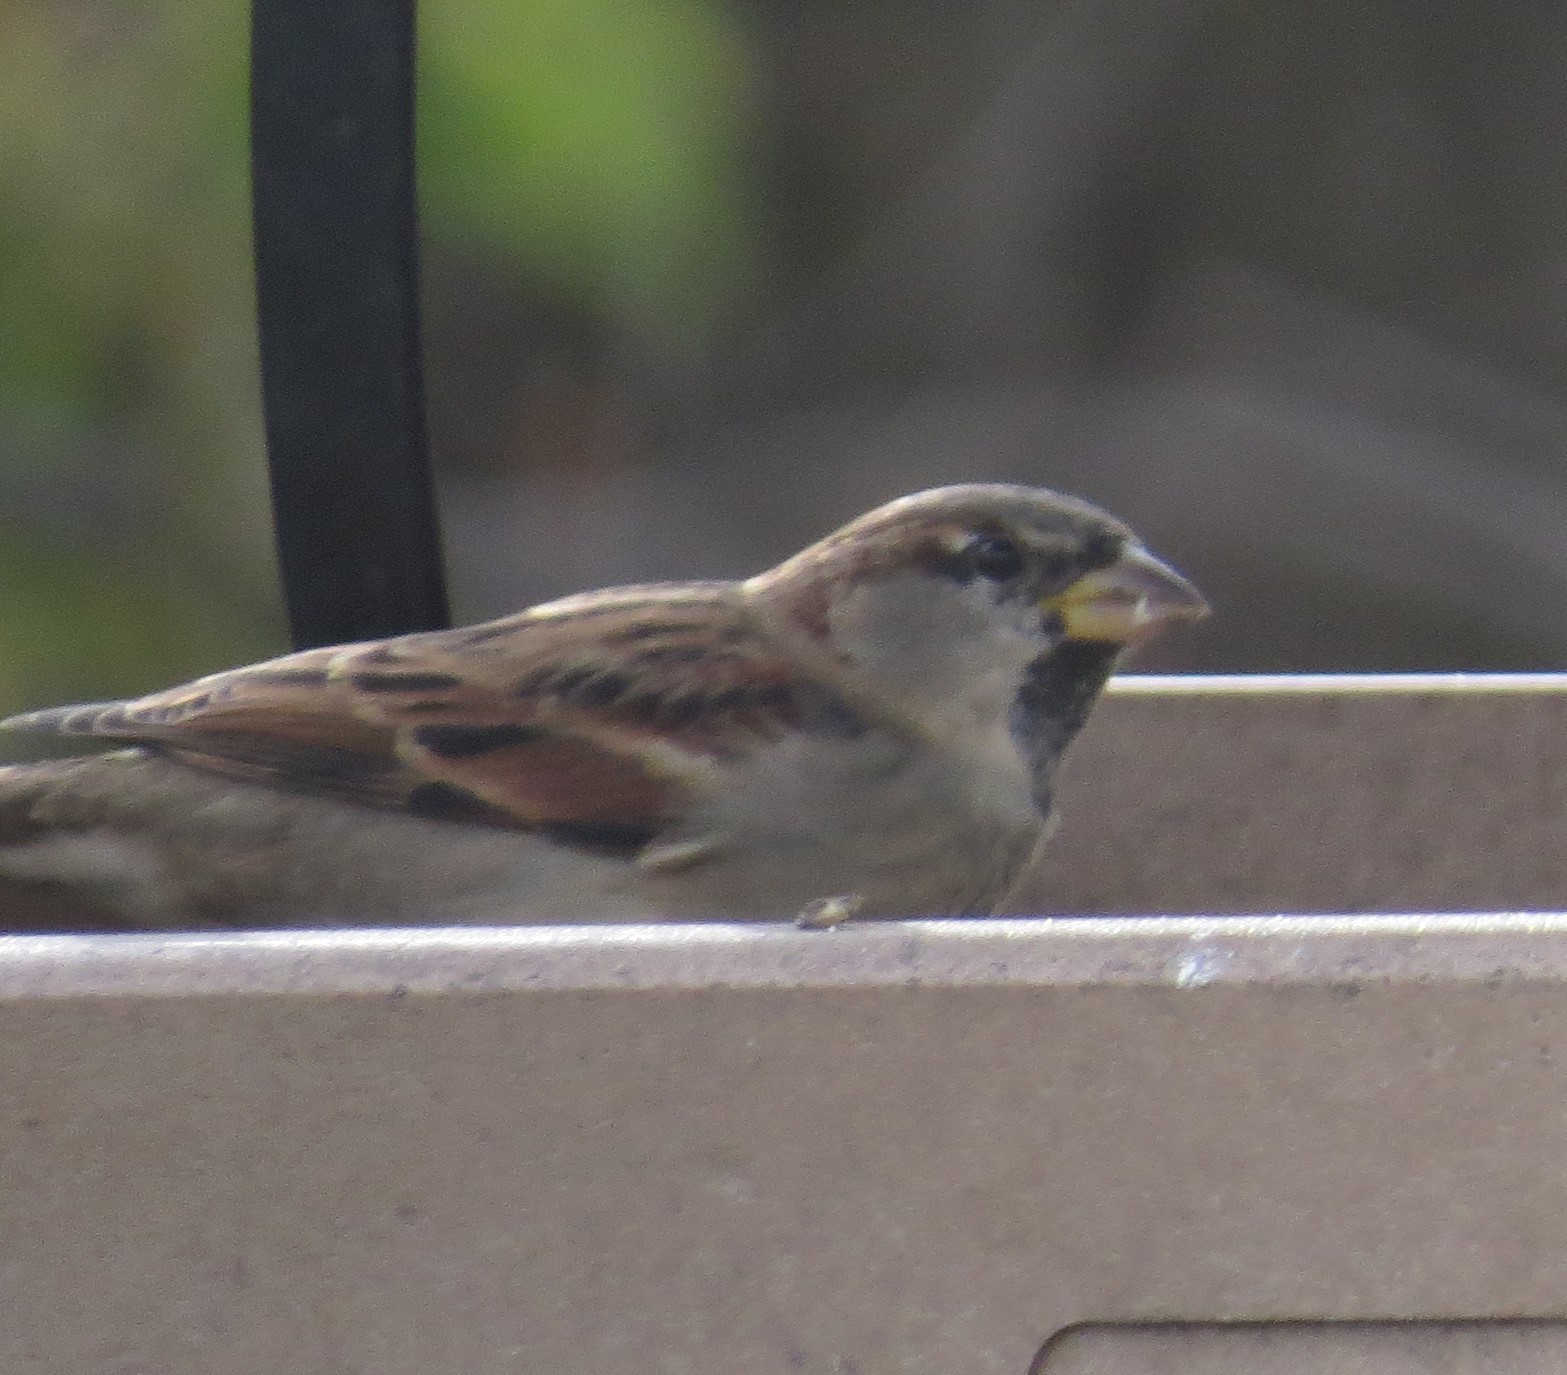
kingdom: Animalia
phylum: Chordata
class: Aves
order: Passeriformes
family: Passeridae
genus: Passer
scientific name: Passer domesticus
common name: House sparrow
